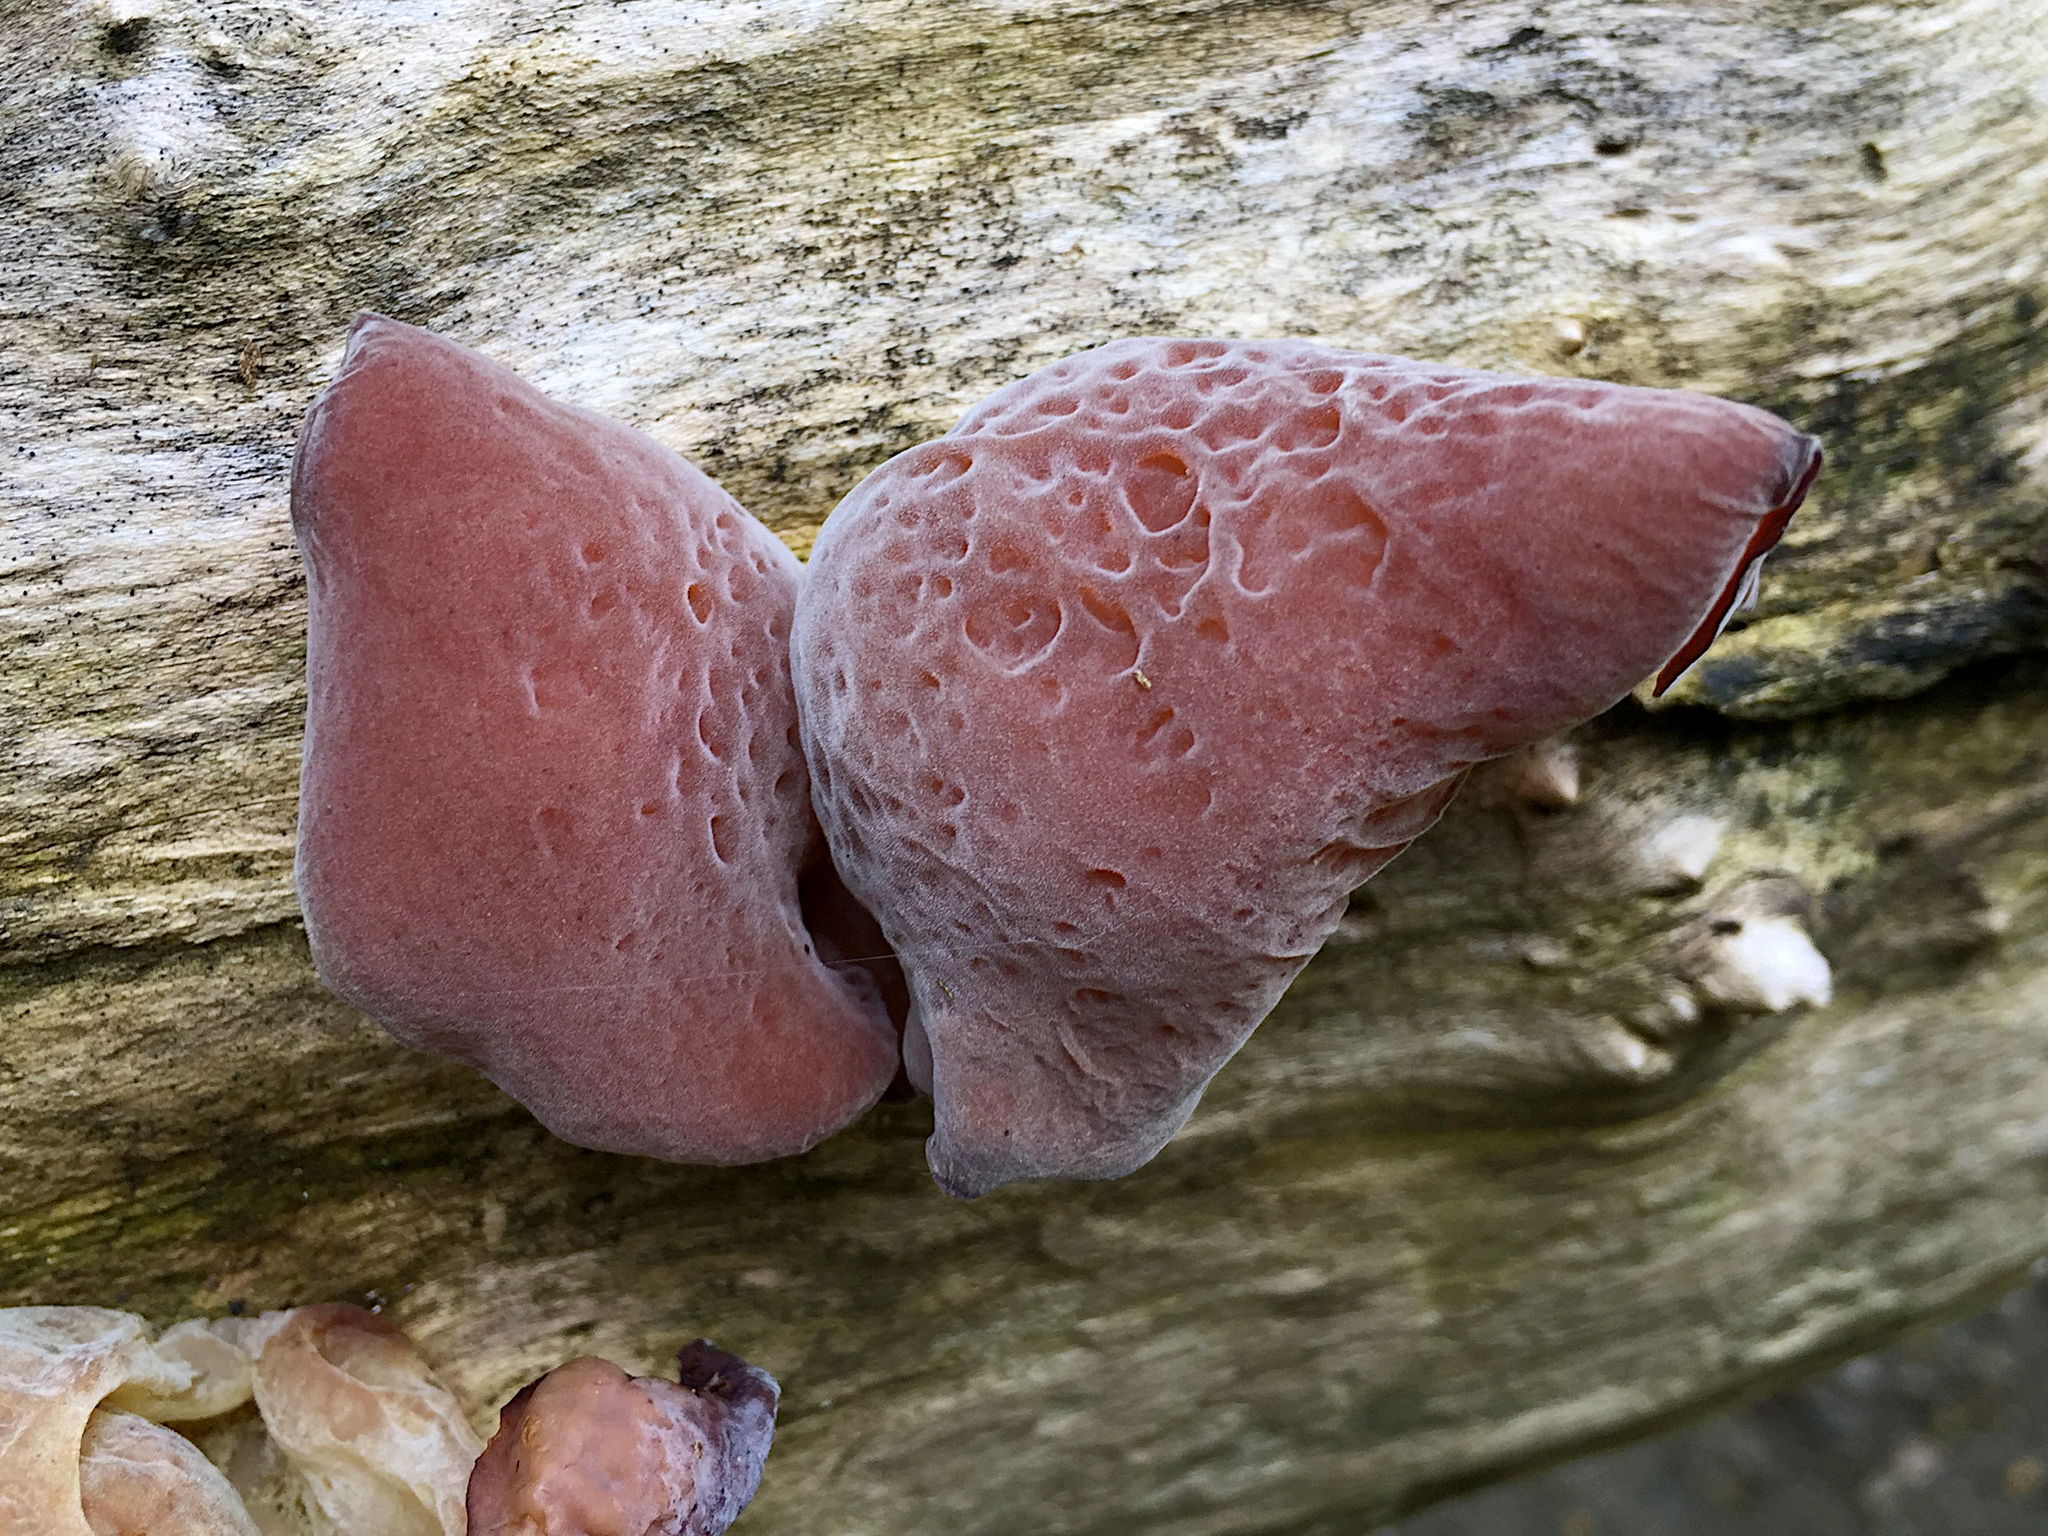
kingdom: Fungi
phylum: Basidiomycota
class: Agaricomycetes
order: Auriculariales
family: Auriculariaceae
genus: Auricularia
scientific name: Auricularia
